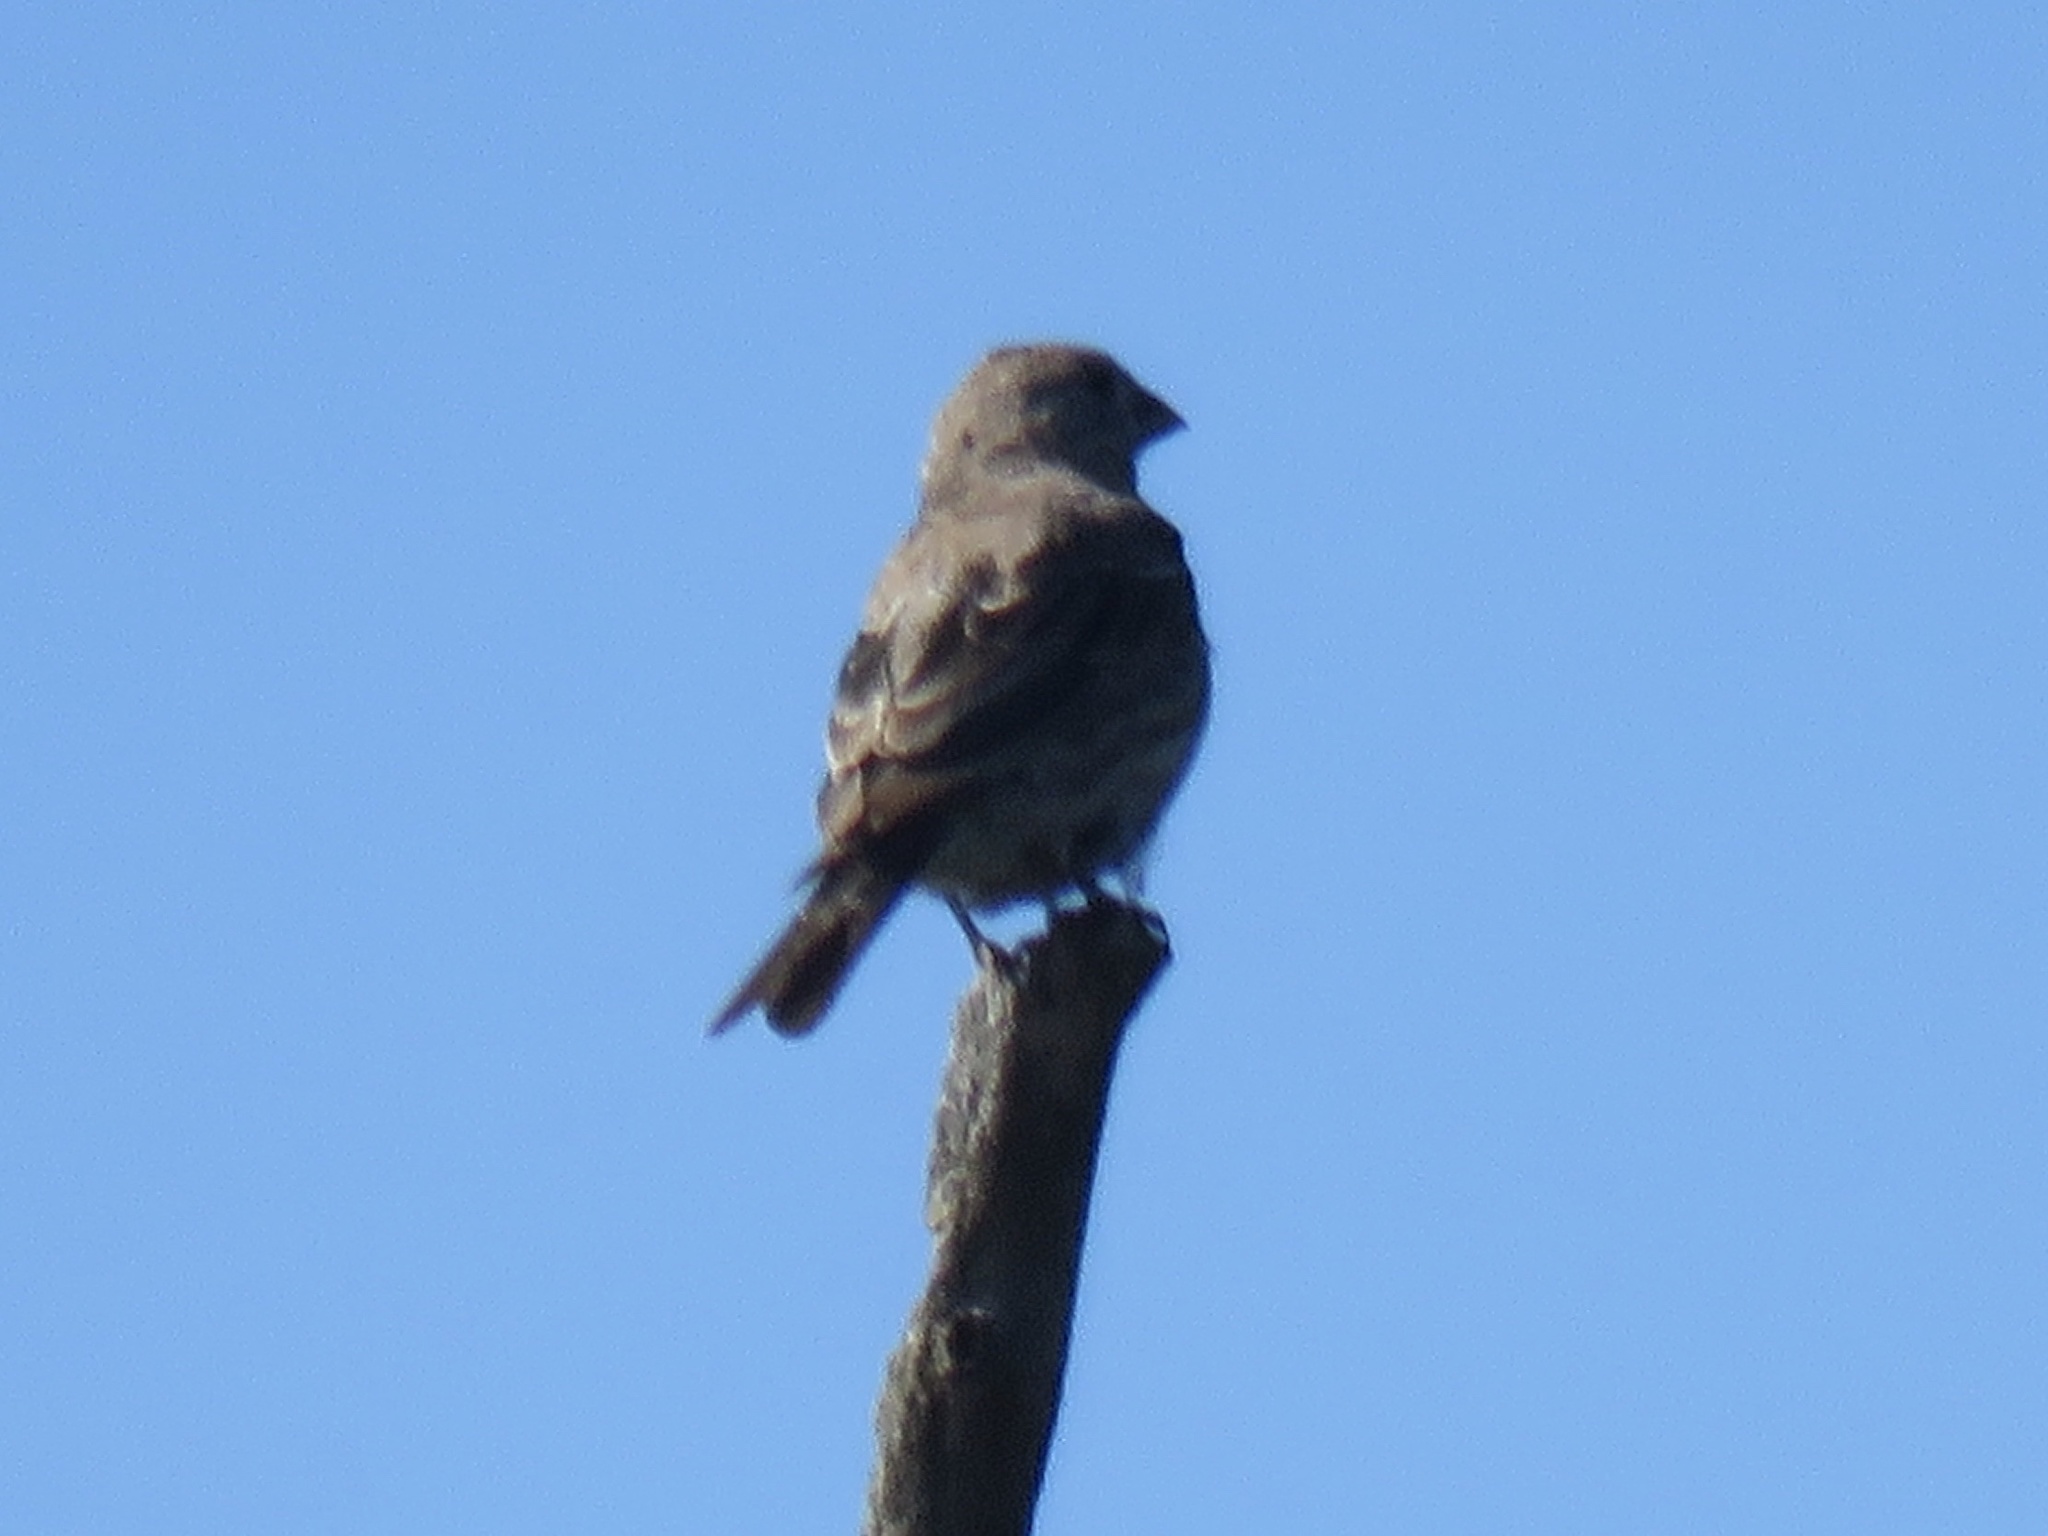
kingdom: Animalia
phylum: Chordata
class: Aves
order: Passeriformes
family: Fringillidae
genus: Haemorhous
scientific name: Haemorhous mexicanus
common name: House finch
